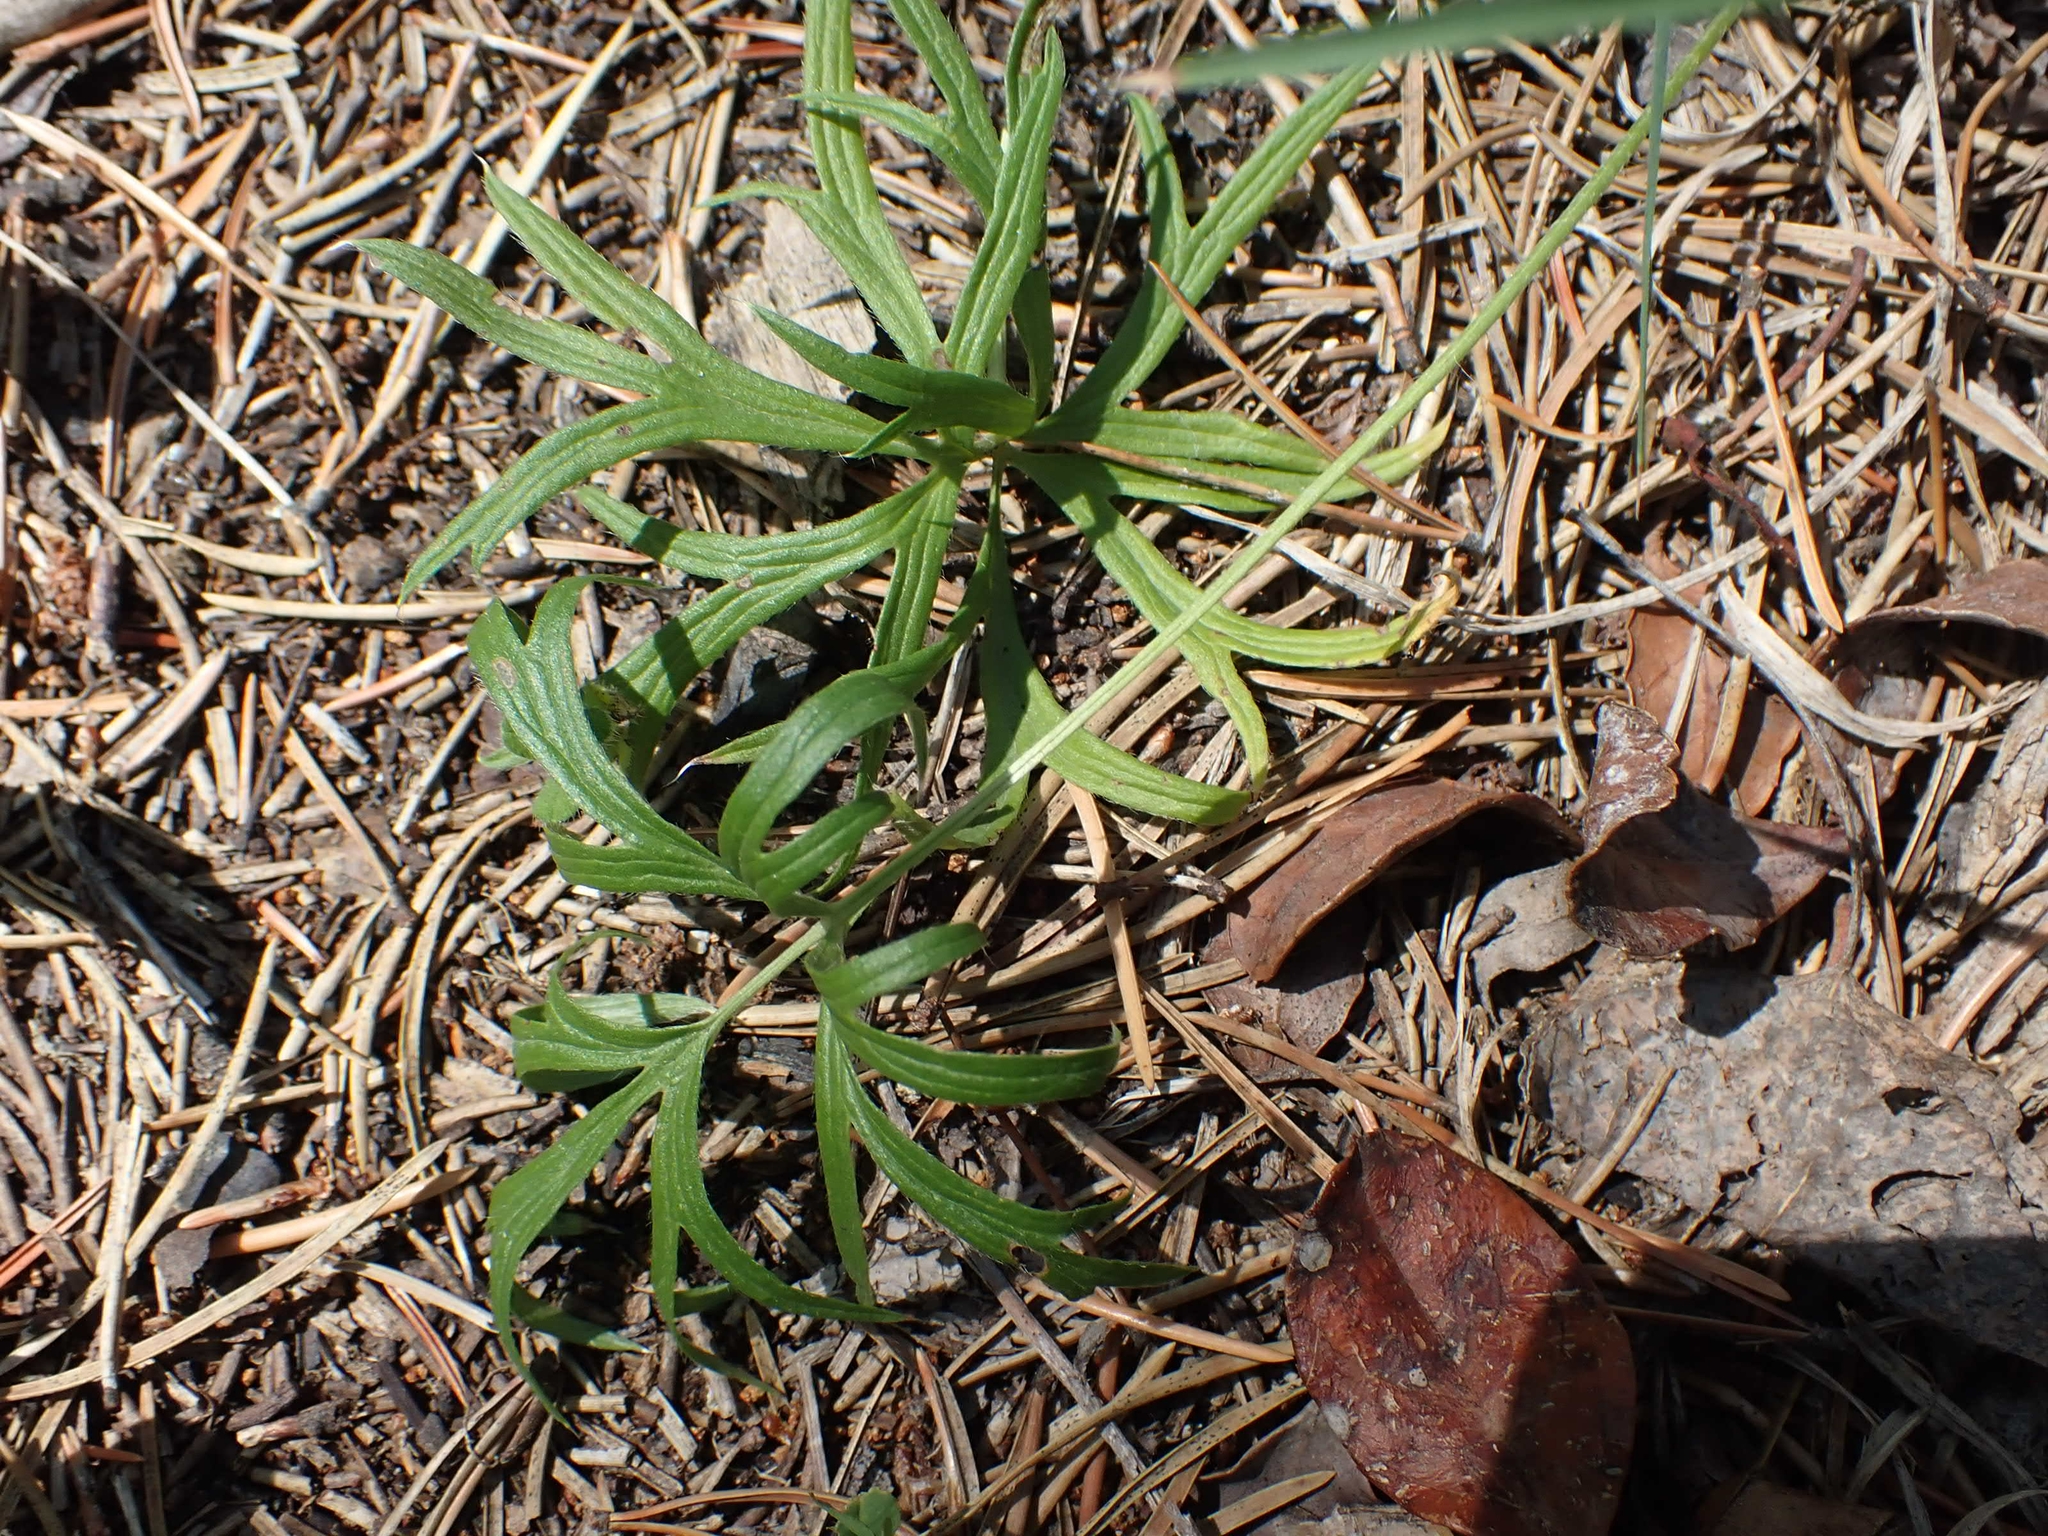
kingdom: Plantae
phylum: Tracheophyta
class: Magnoliopsida
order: Ranunculales
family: Ranunculaceae
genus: Pulsatilla
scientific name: Pulsatilla nuttalliana
